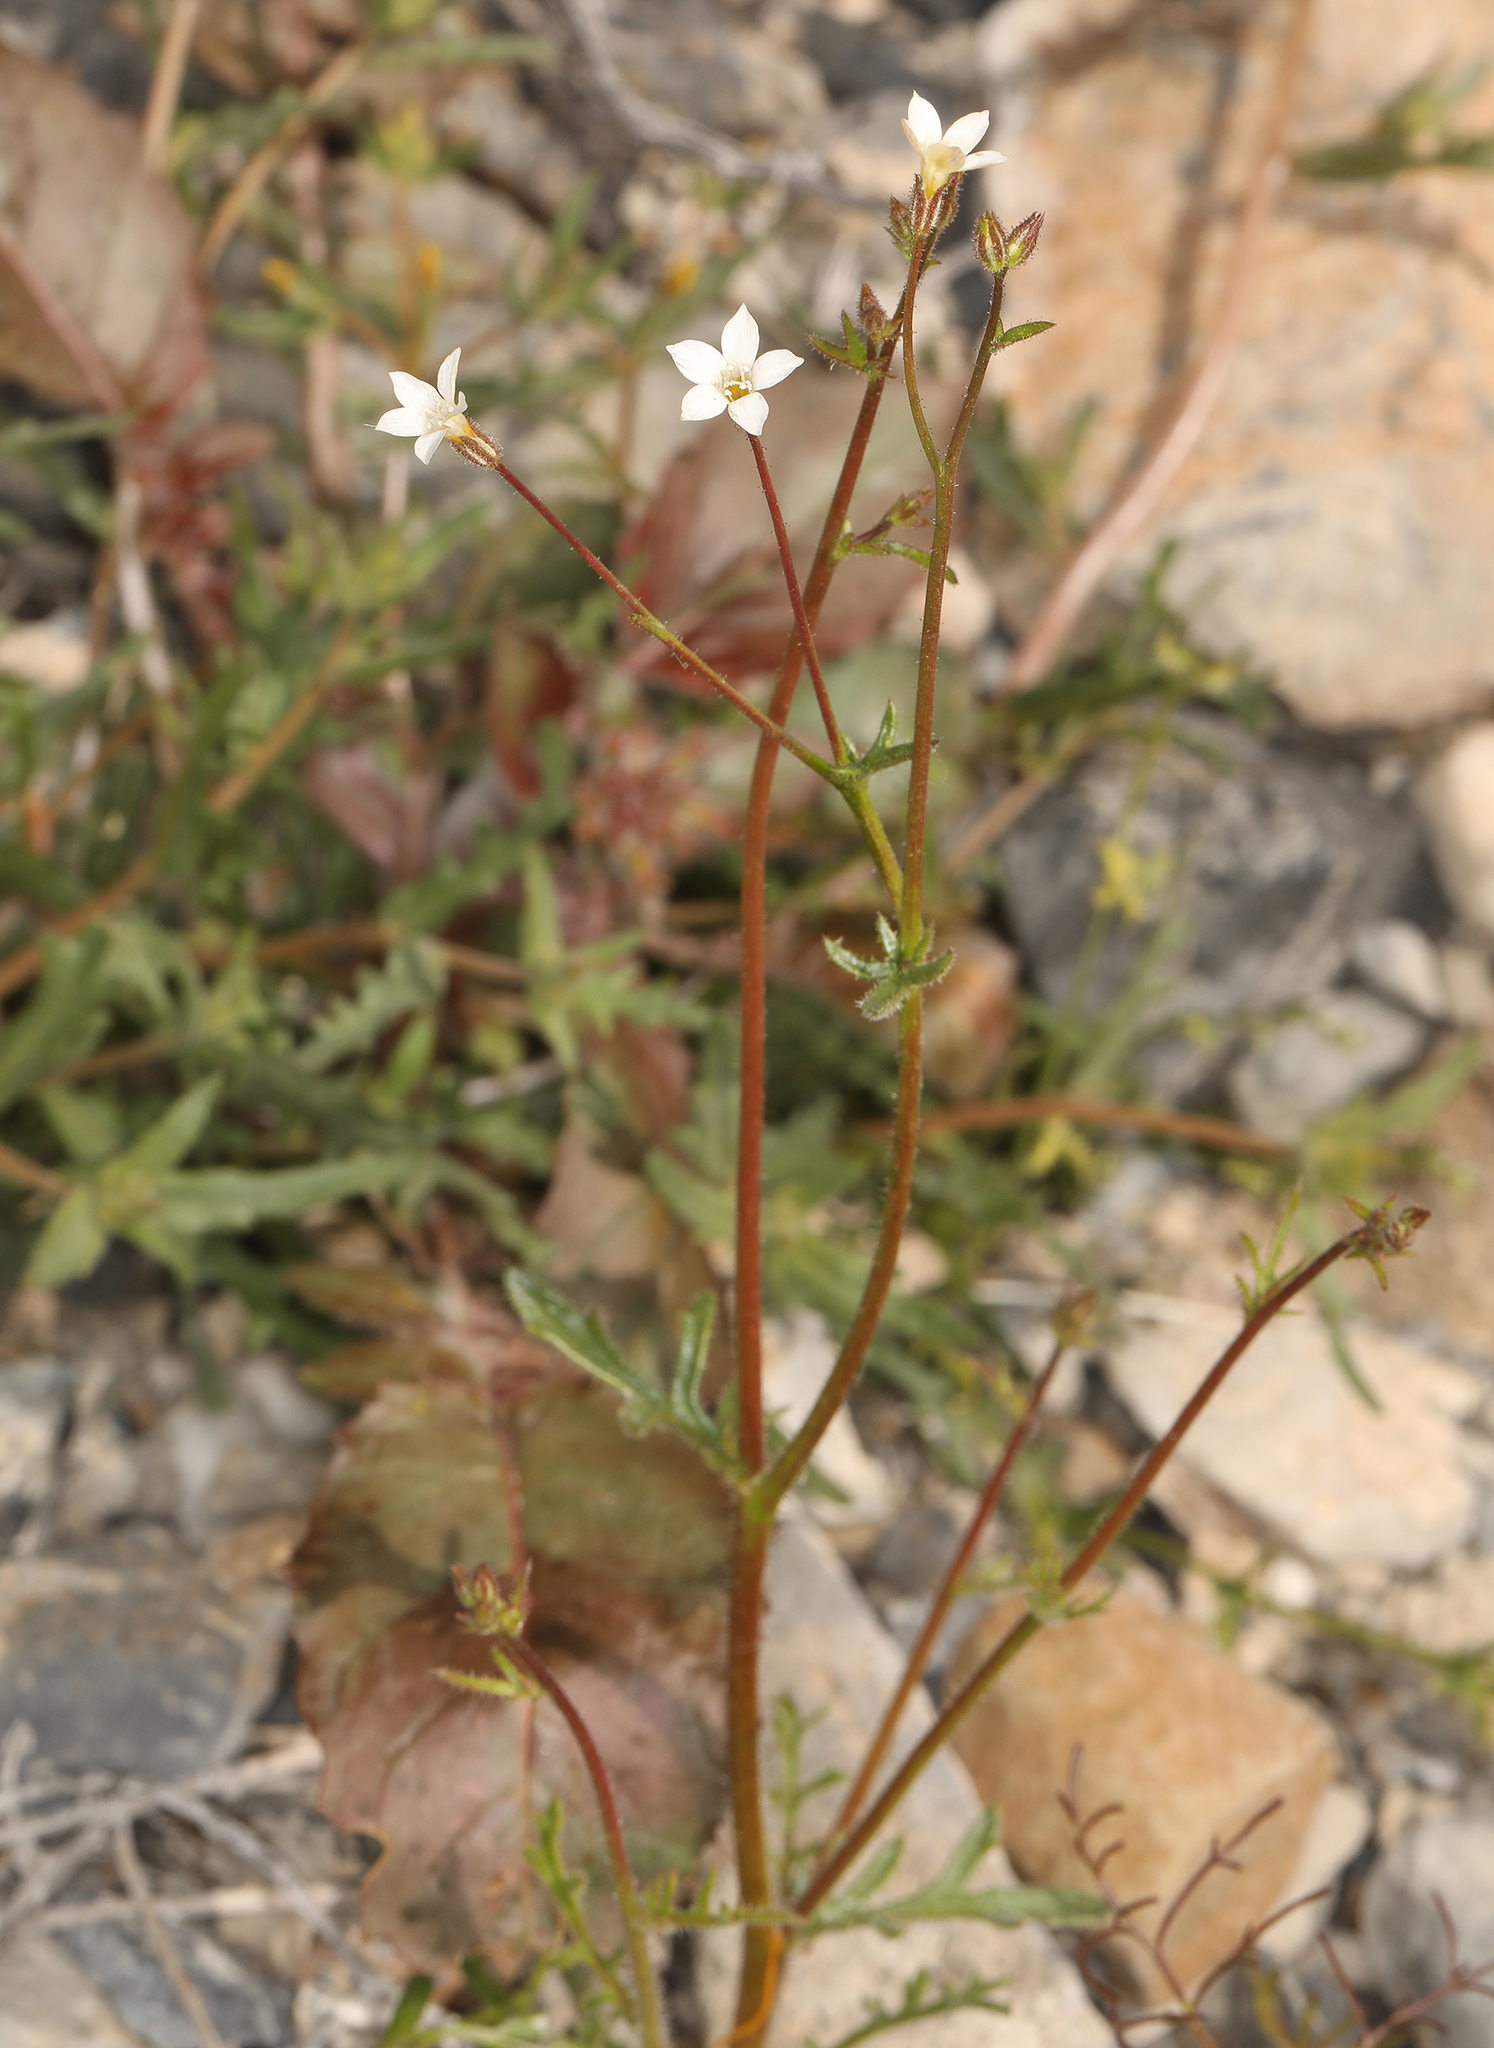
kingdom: Plantae
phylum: Tracheophyta
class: Magnoliopsida
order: Ericales
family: Polemoniaceae
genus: Gilia
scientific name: Gilia stellata
